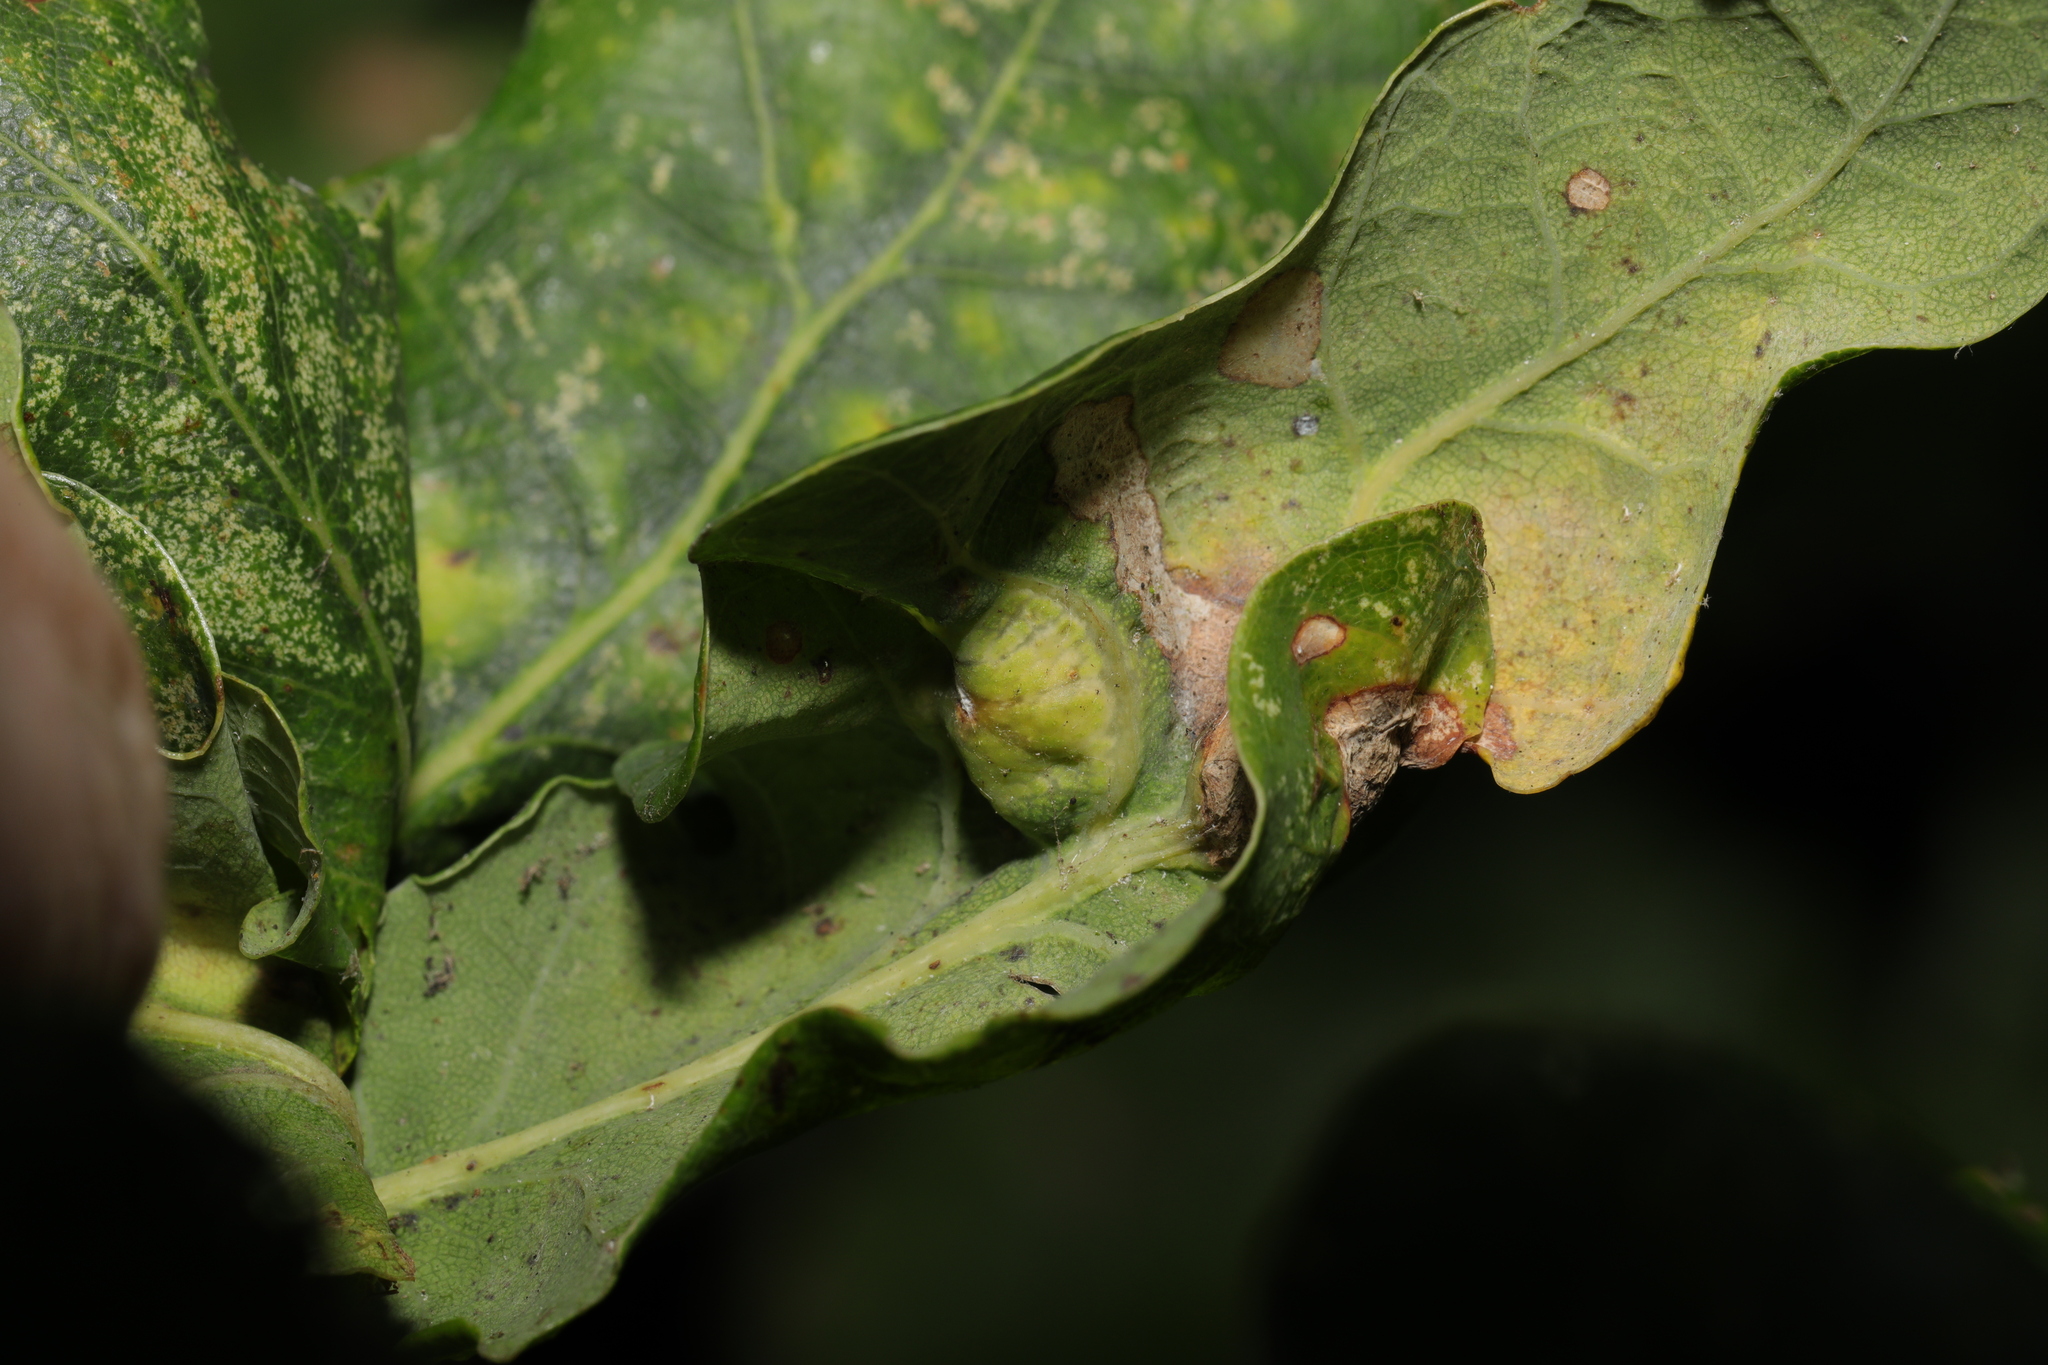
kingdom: Animalia
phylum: Arthropoda
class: Insecta
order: Hymenoptera
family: Cynipidae
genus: Andricus
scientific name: Andricus curvator
